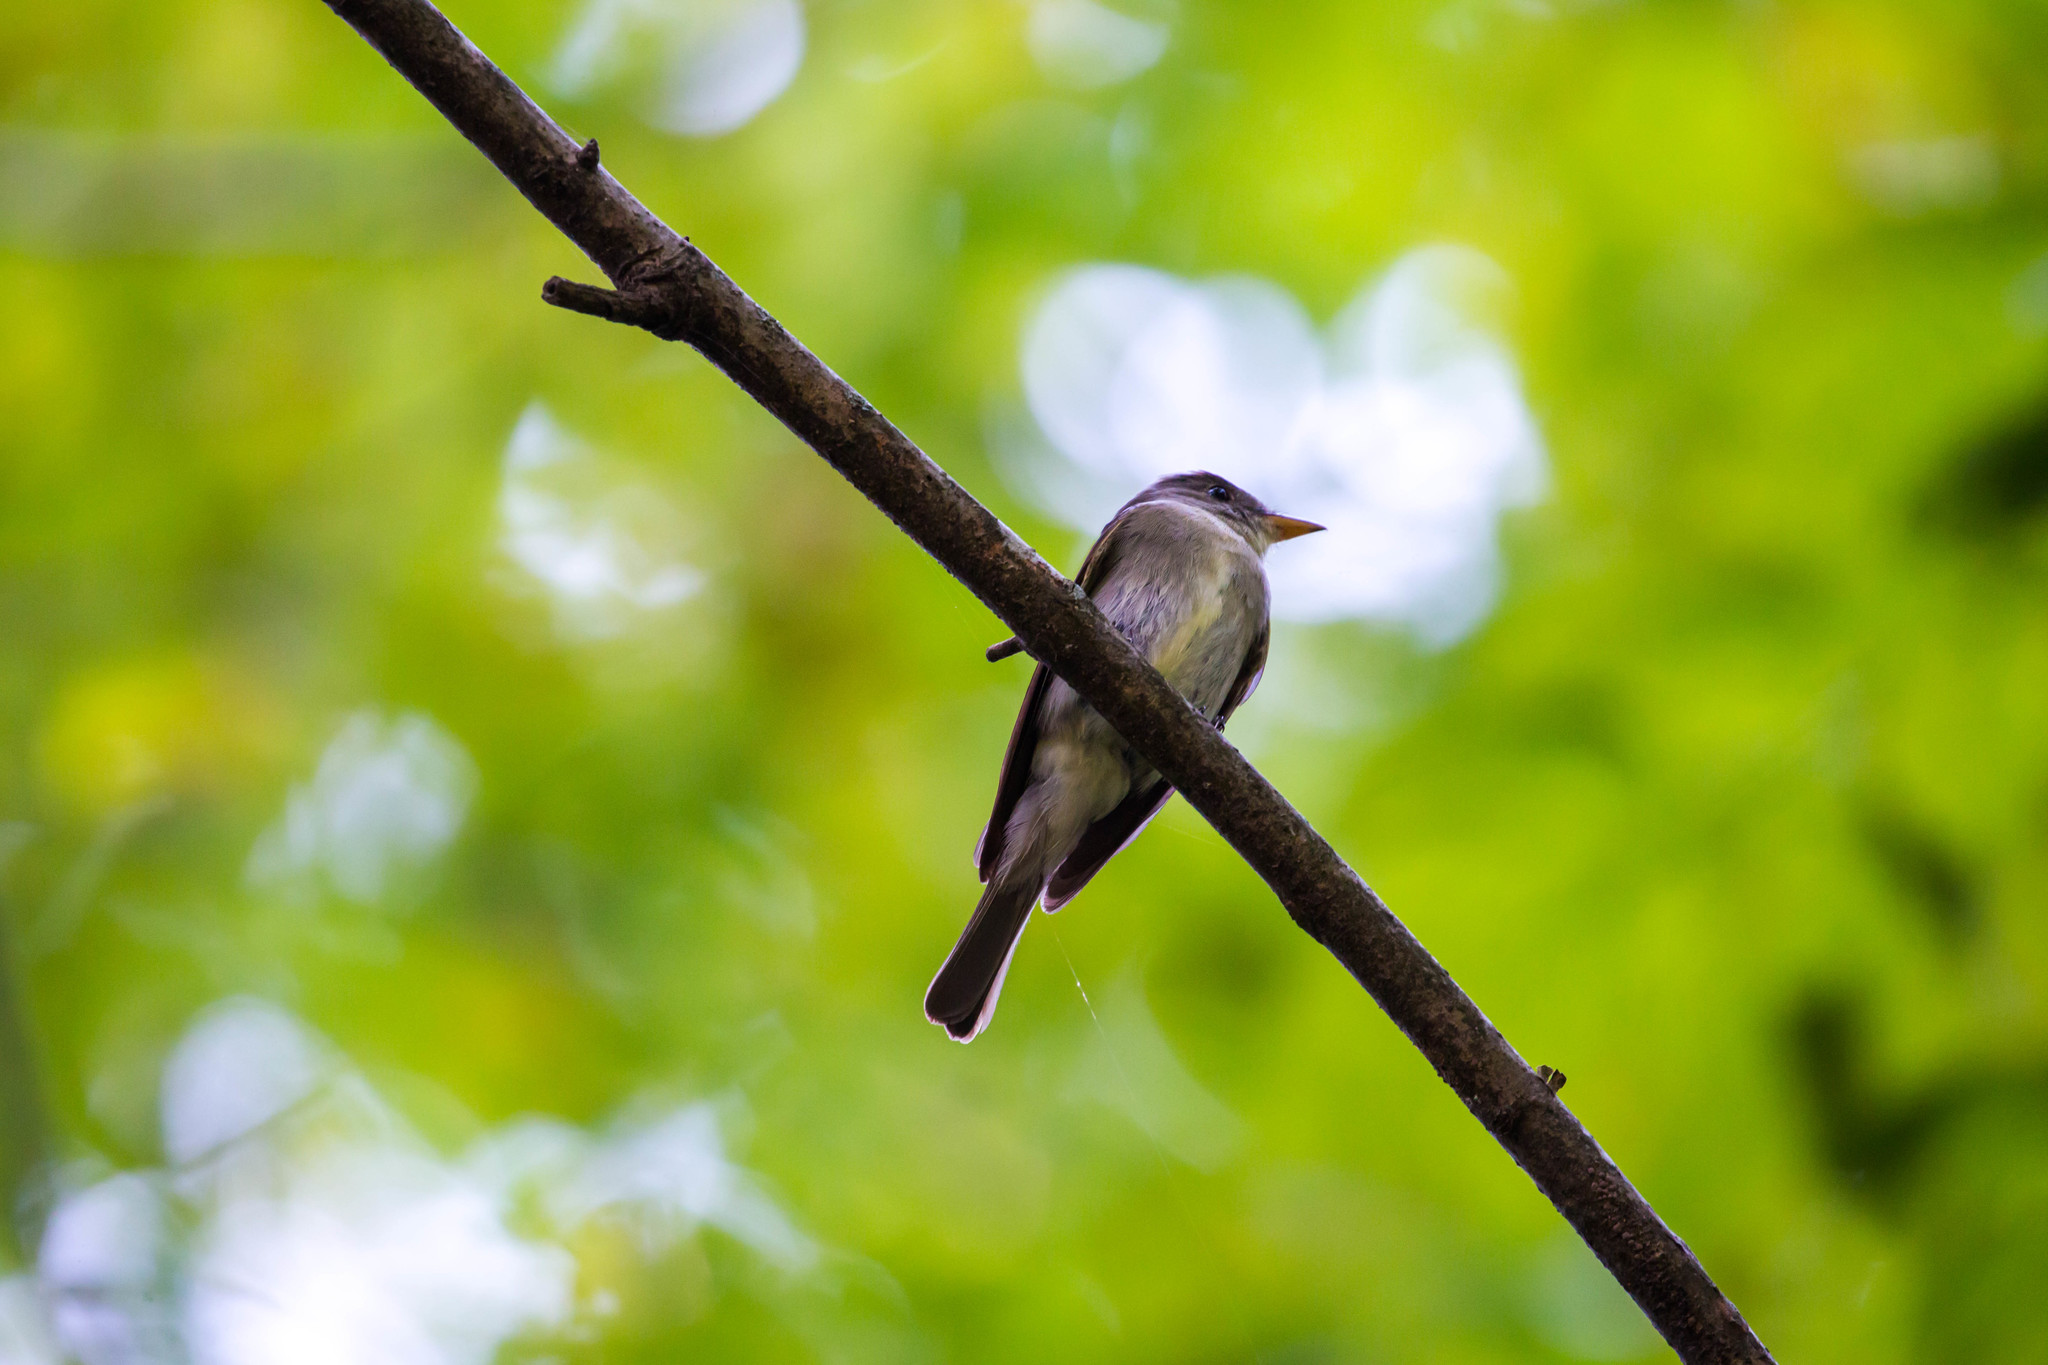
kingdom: Animalia
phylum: Chordata
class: Aves
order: Passeriformes
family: Tyrannidae
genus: Contopus
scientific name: Contopus virens
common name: Eastern wood-pewee
